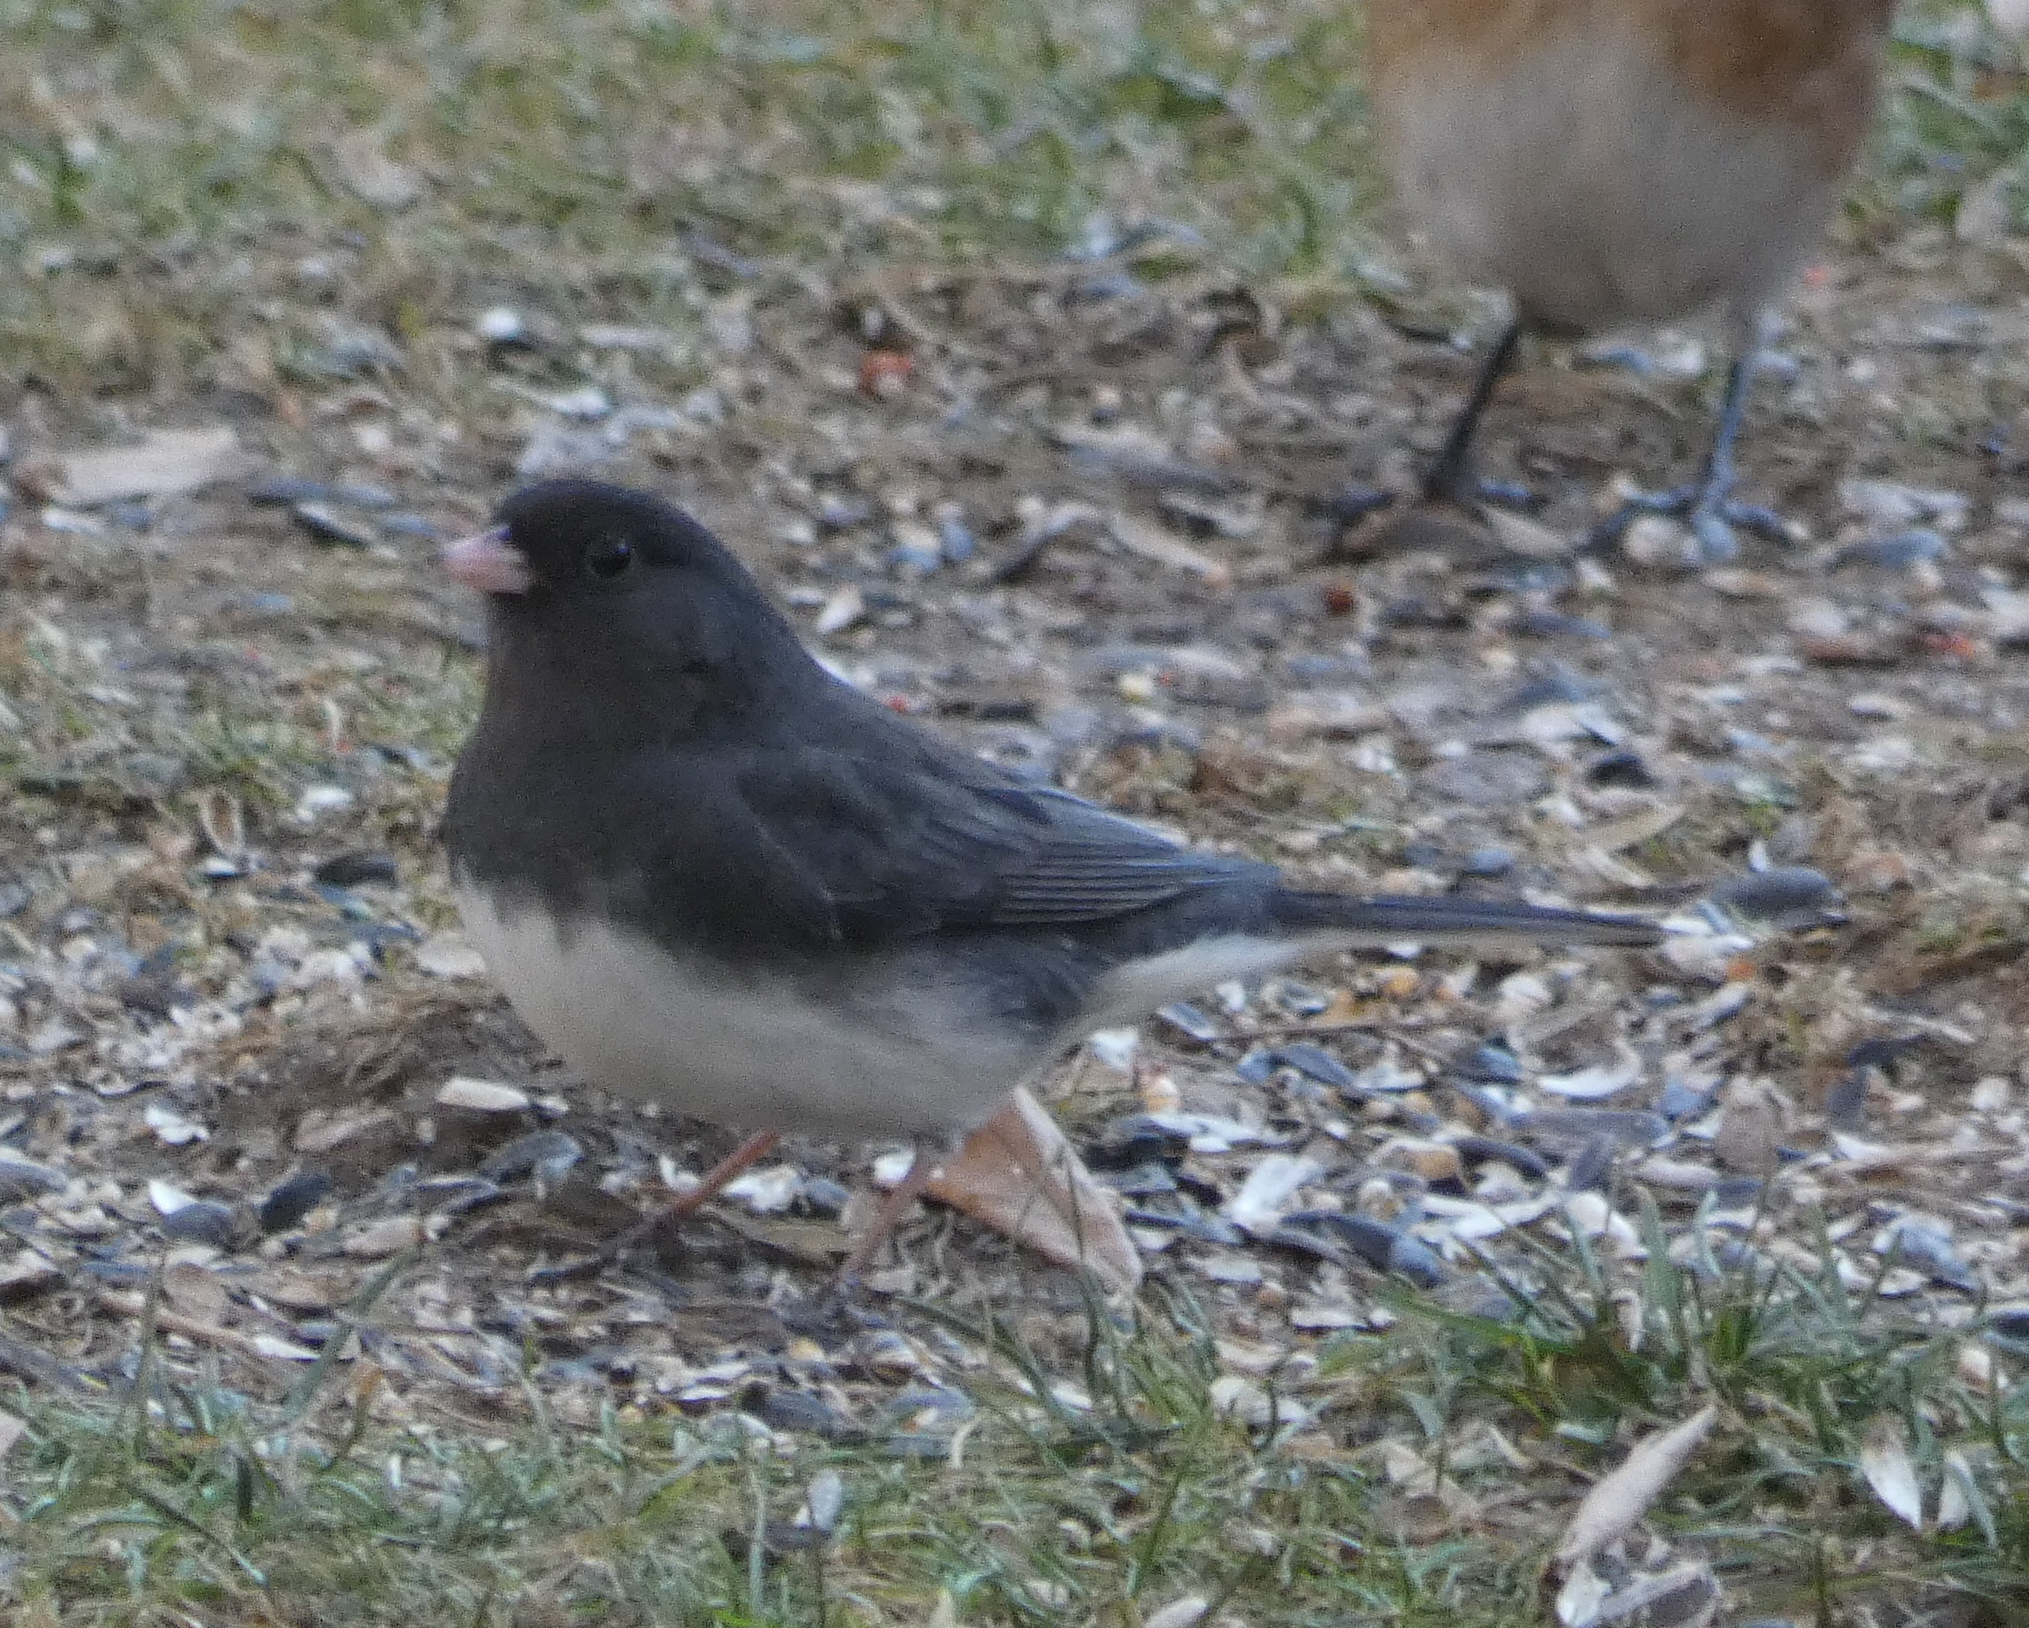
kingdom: Animalia
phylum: Chordata
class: Aves
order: Passeriformes
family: Passerellidae
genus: Junco
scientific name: Junco hyemalis
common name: Dark-eyed junco
